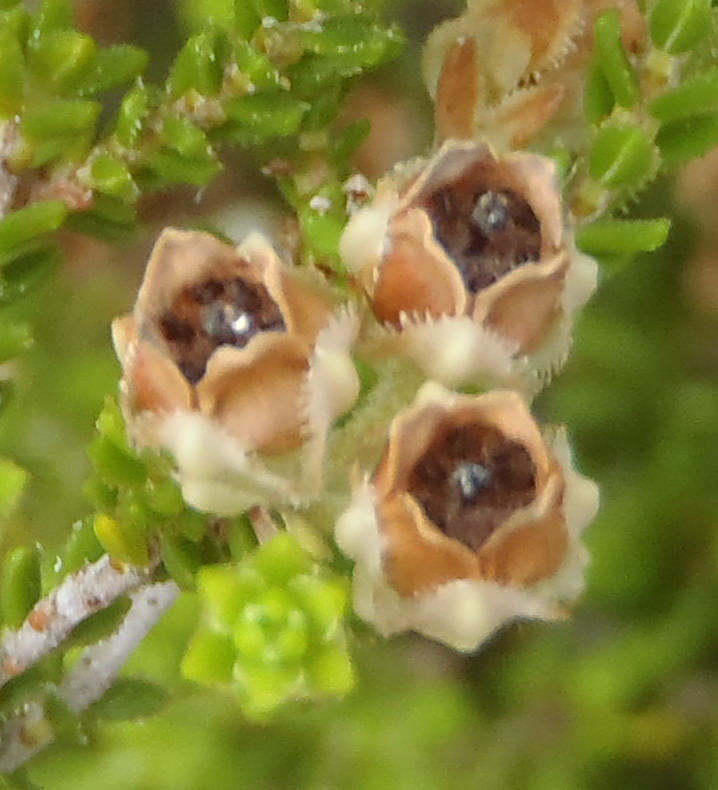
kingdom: Plantae
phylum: Tracheophyta
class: Magnoliopsida
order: Ericales
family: Ericaceae
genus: Erica
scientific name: Erica fimbriata
